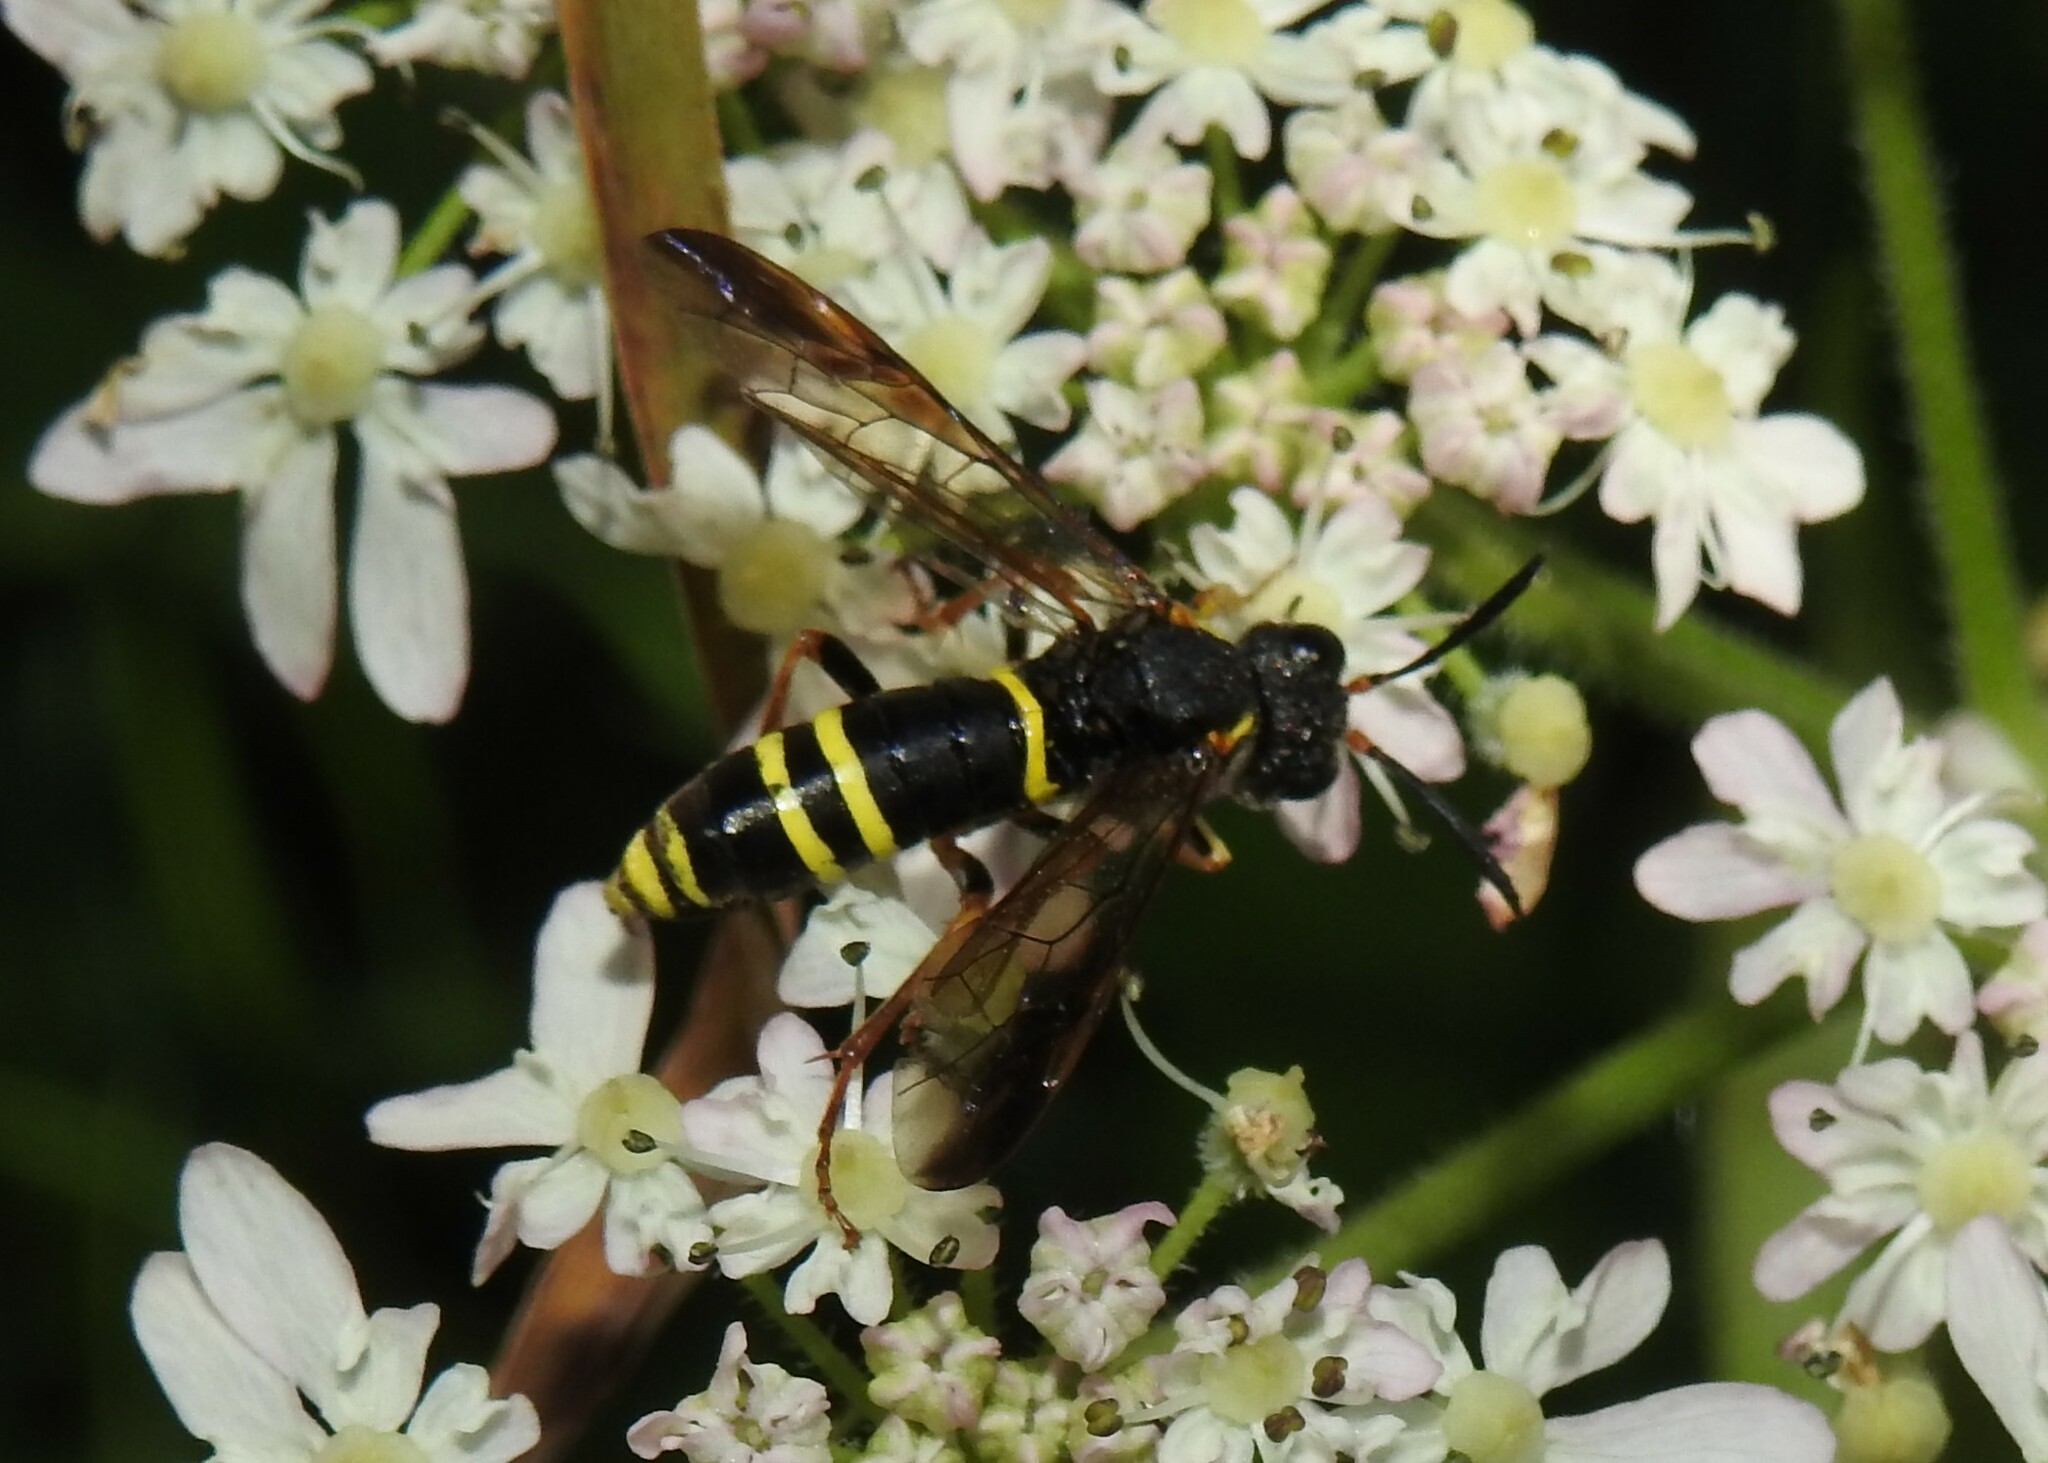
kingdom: Animalia
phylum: Arthropoda
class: Insecta
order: Hymenoptera
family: Tenthredinidae
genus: Tenthredo
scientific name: Tenthredo vespa
